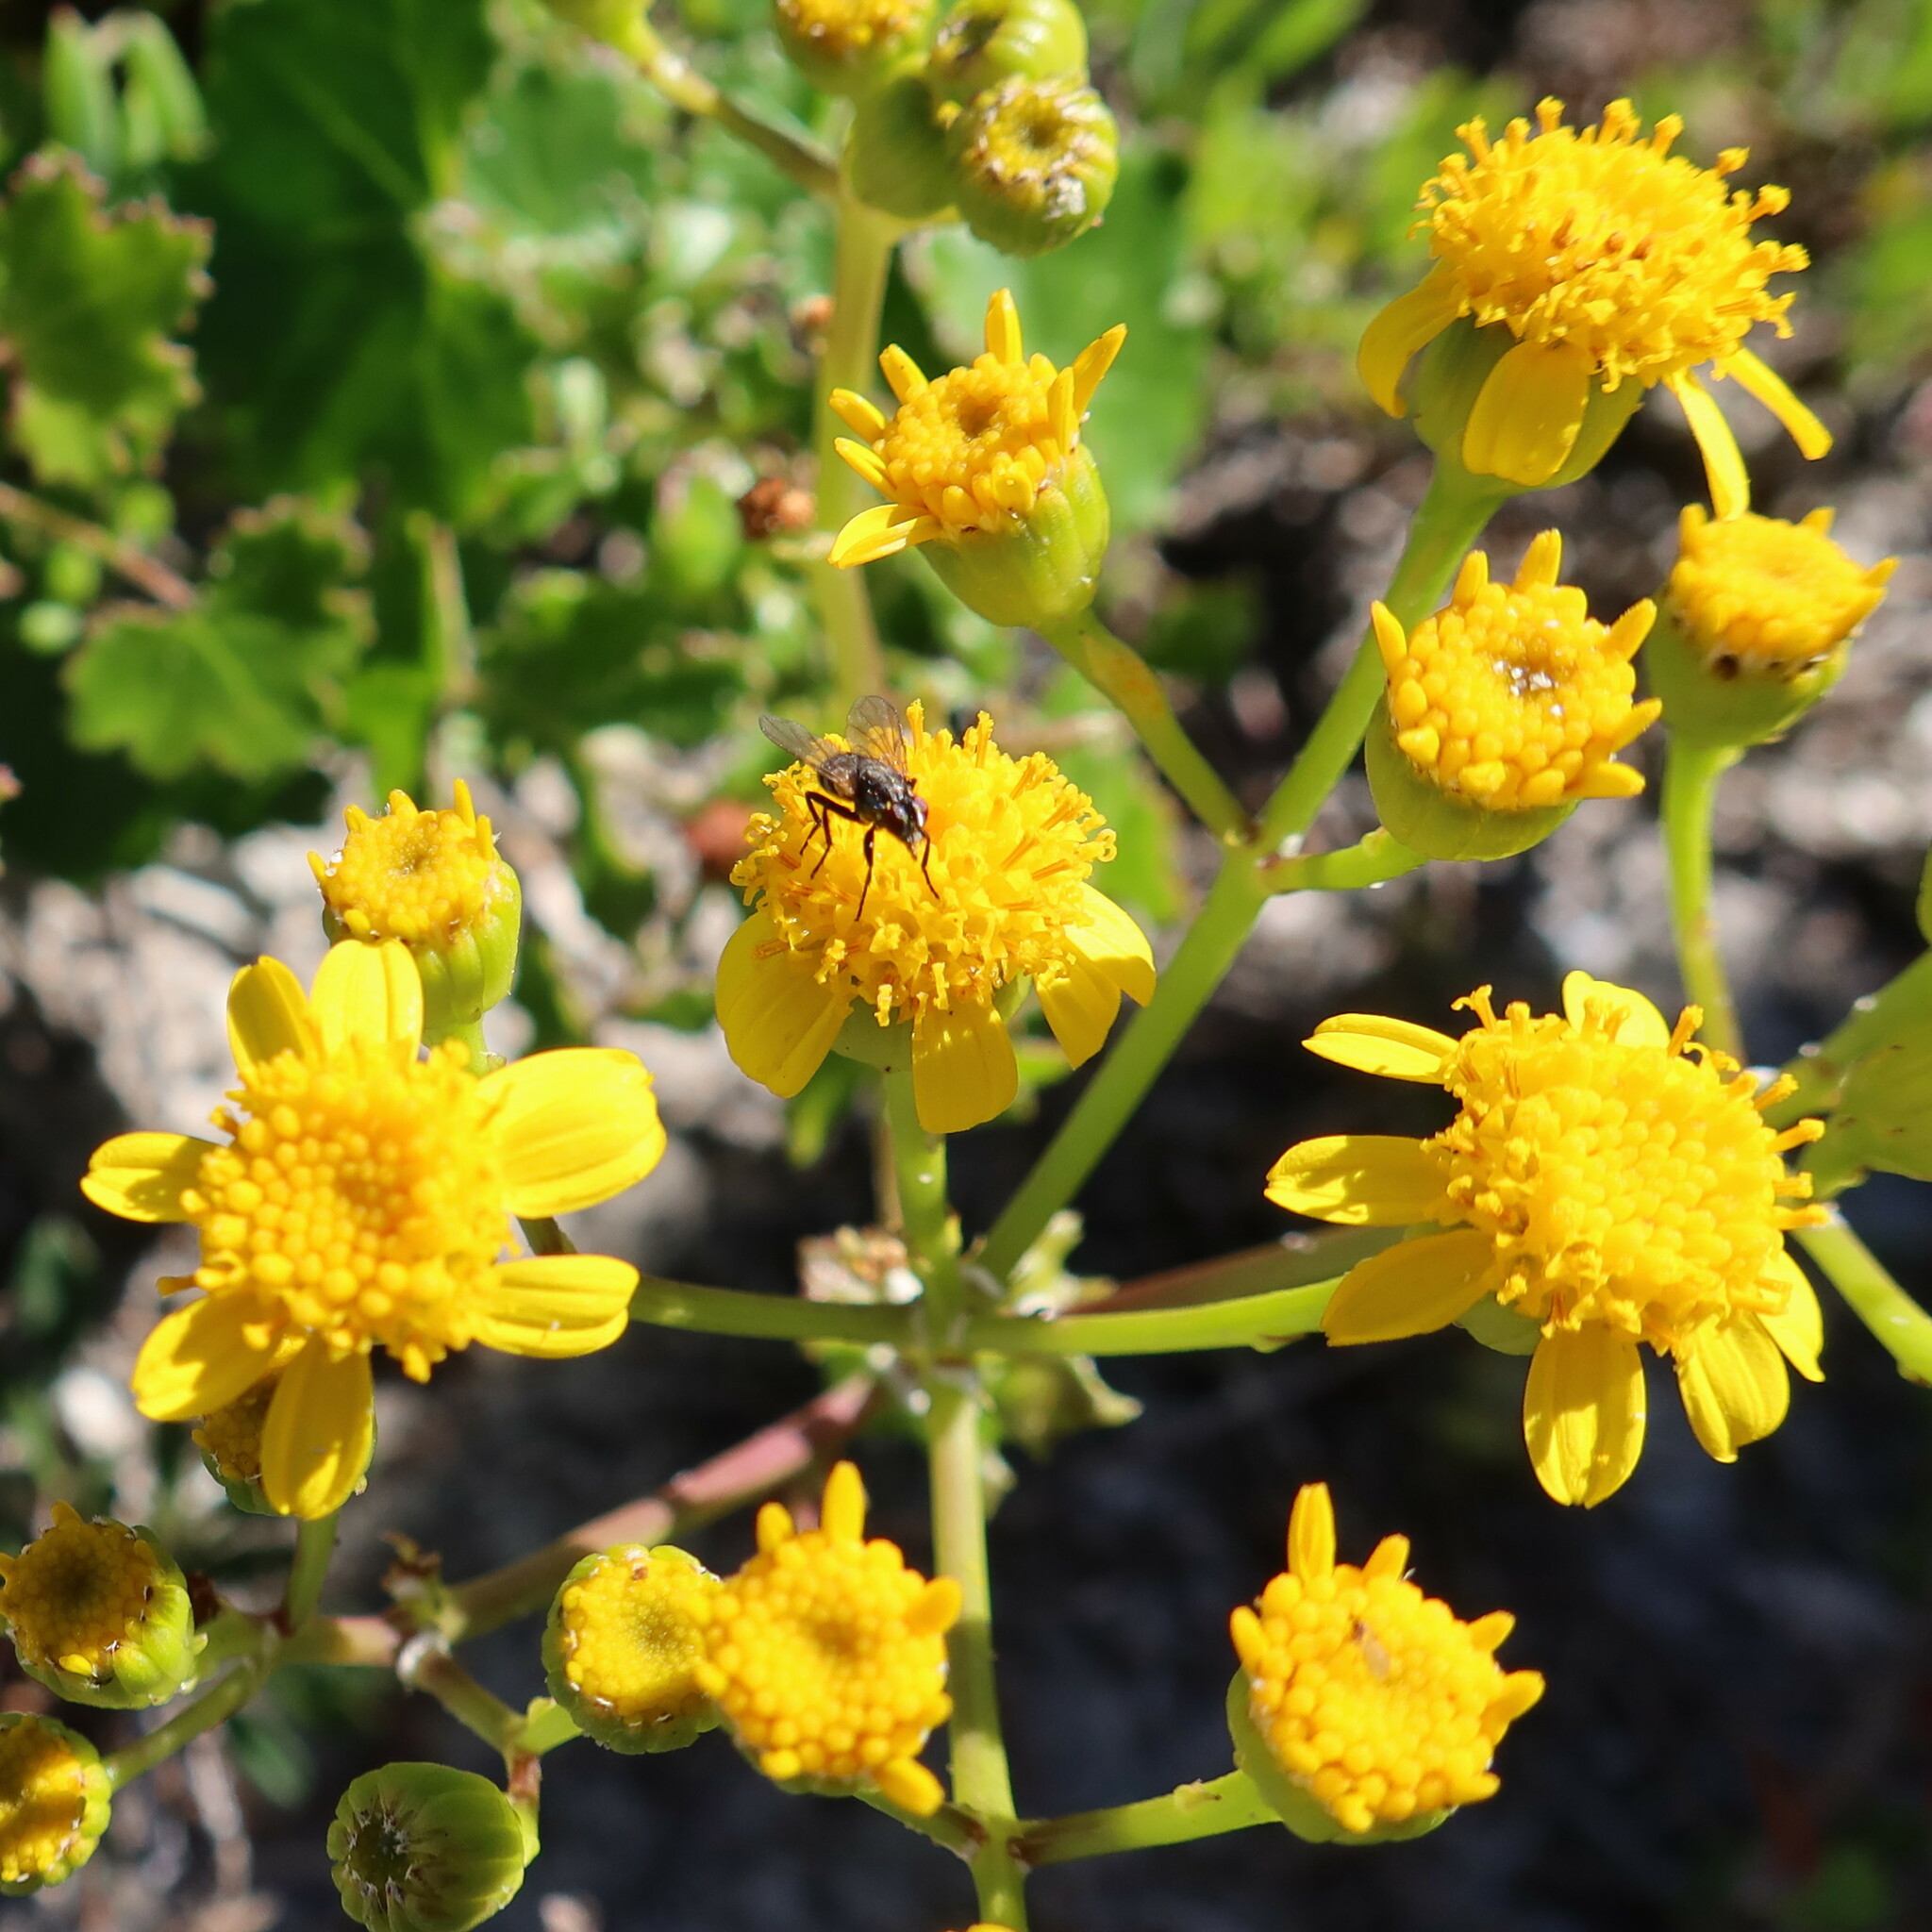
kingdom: Plantae
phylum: Tracheophyta
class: Magnoliopsida
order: Asterales
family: Asteraceae
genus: Cineraria
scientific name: Cineraria geifolia
